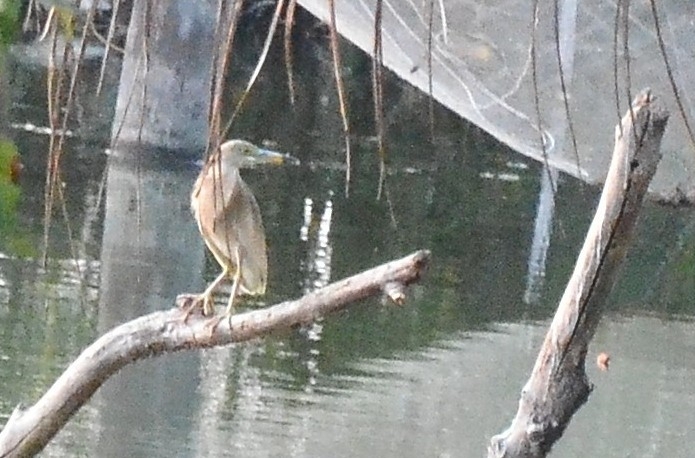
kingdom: Animalia
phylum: Chordata
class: Aves
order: Pelecaniformes
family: Ardeidae
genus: Ardeola
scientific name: Ardeola grayii
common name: Indian pond heron
